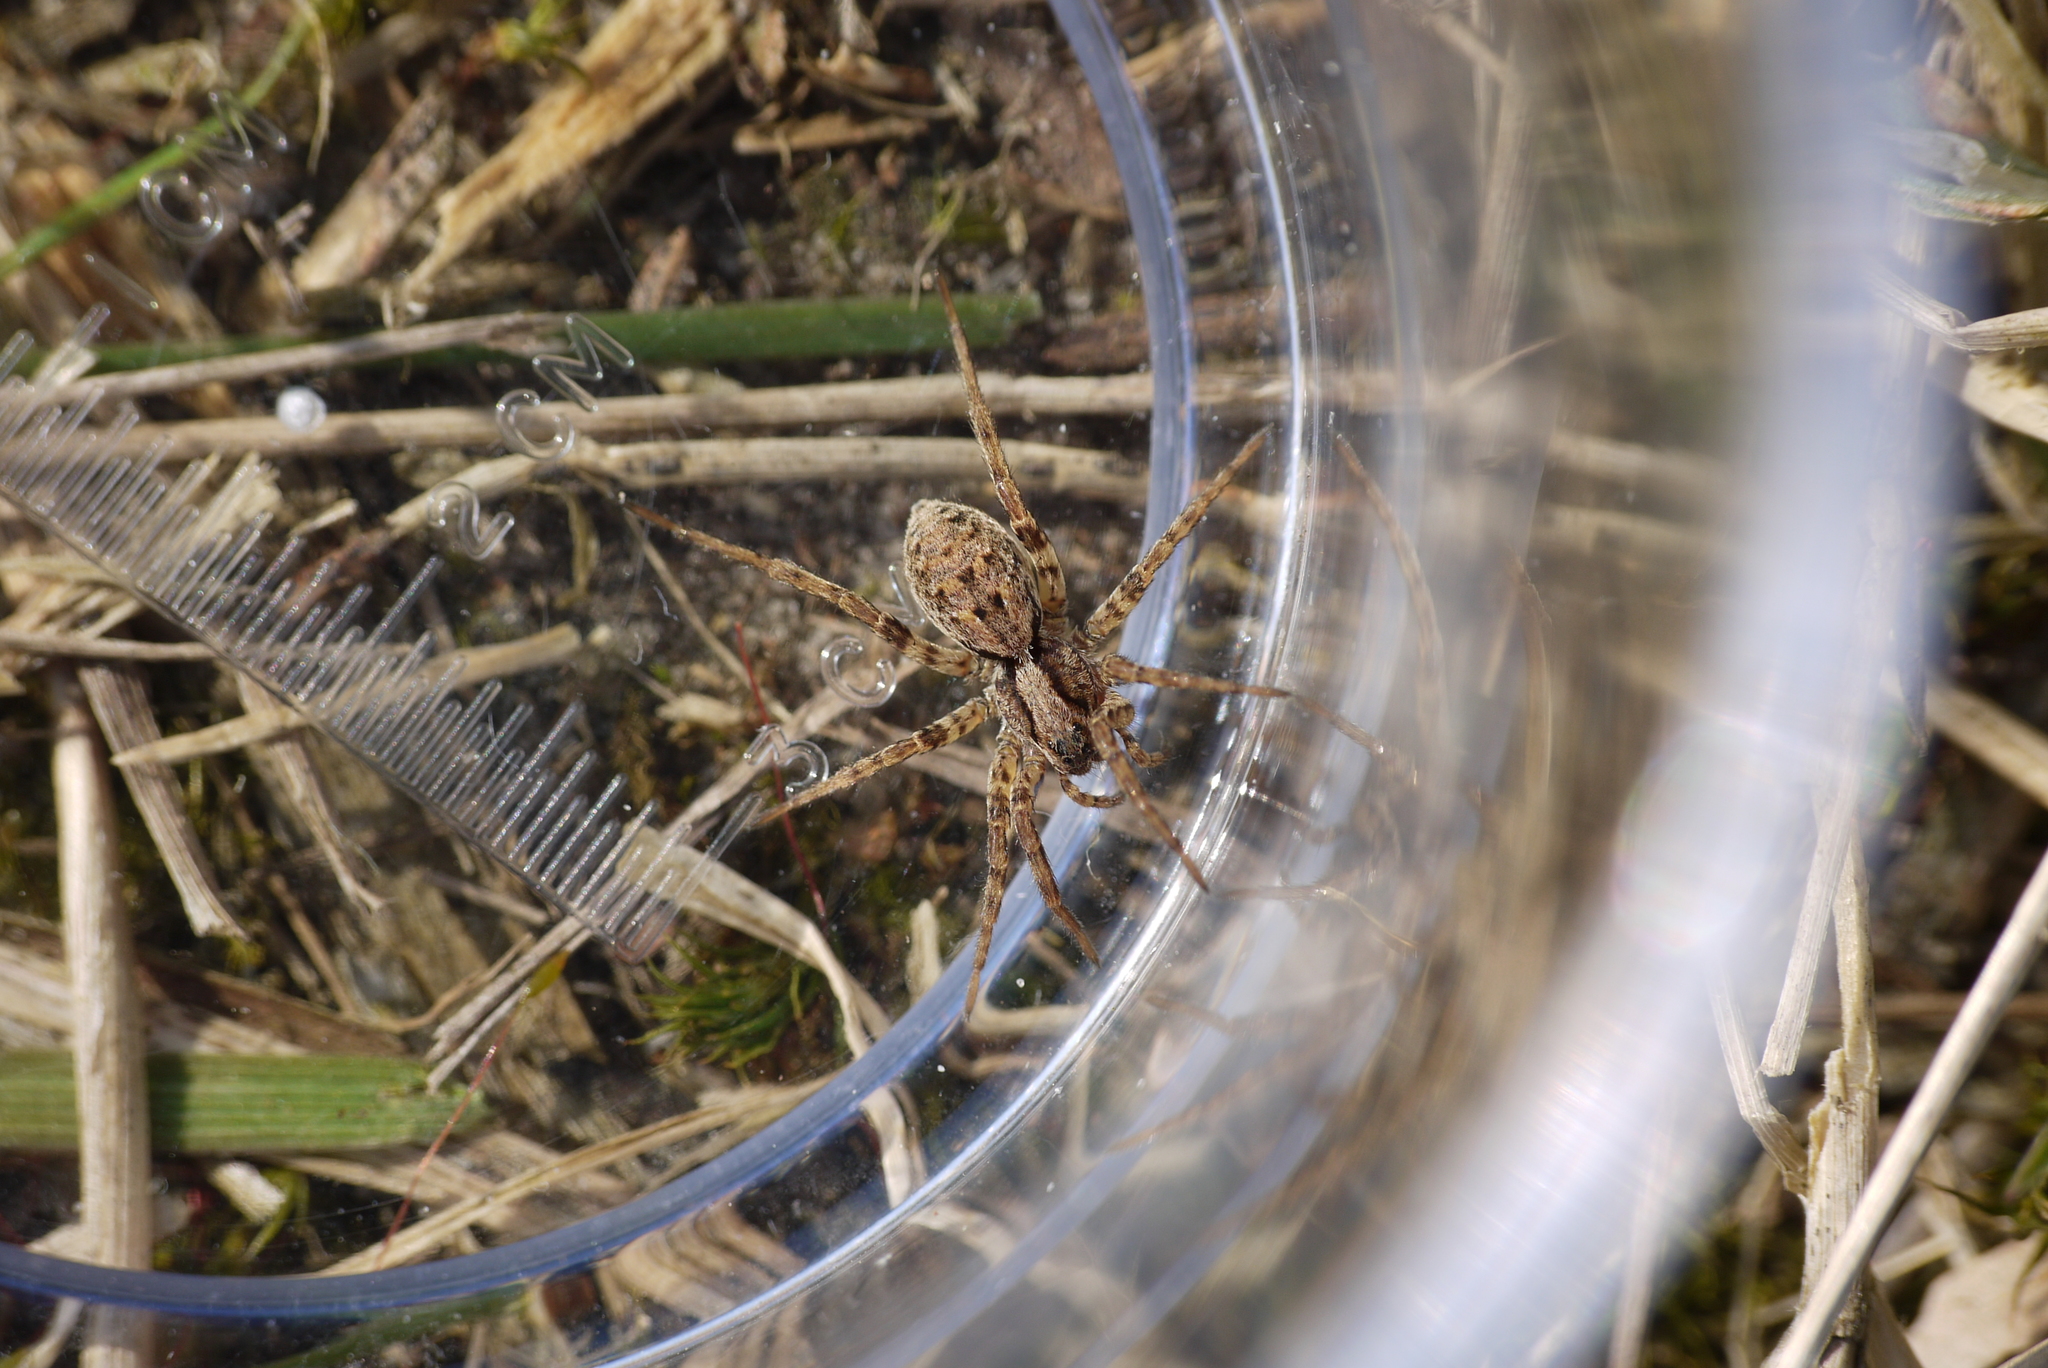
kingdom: Animalia
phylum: Arthropoda
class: Arachnida
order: Araneae
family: Lycosidae
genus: Alopecosa
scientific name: Alopecosa barbipes
